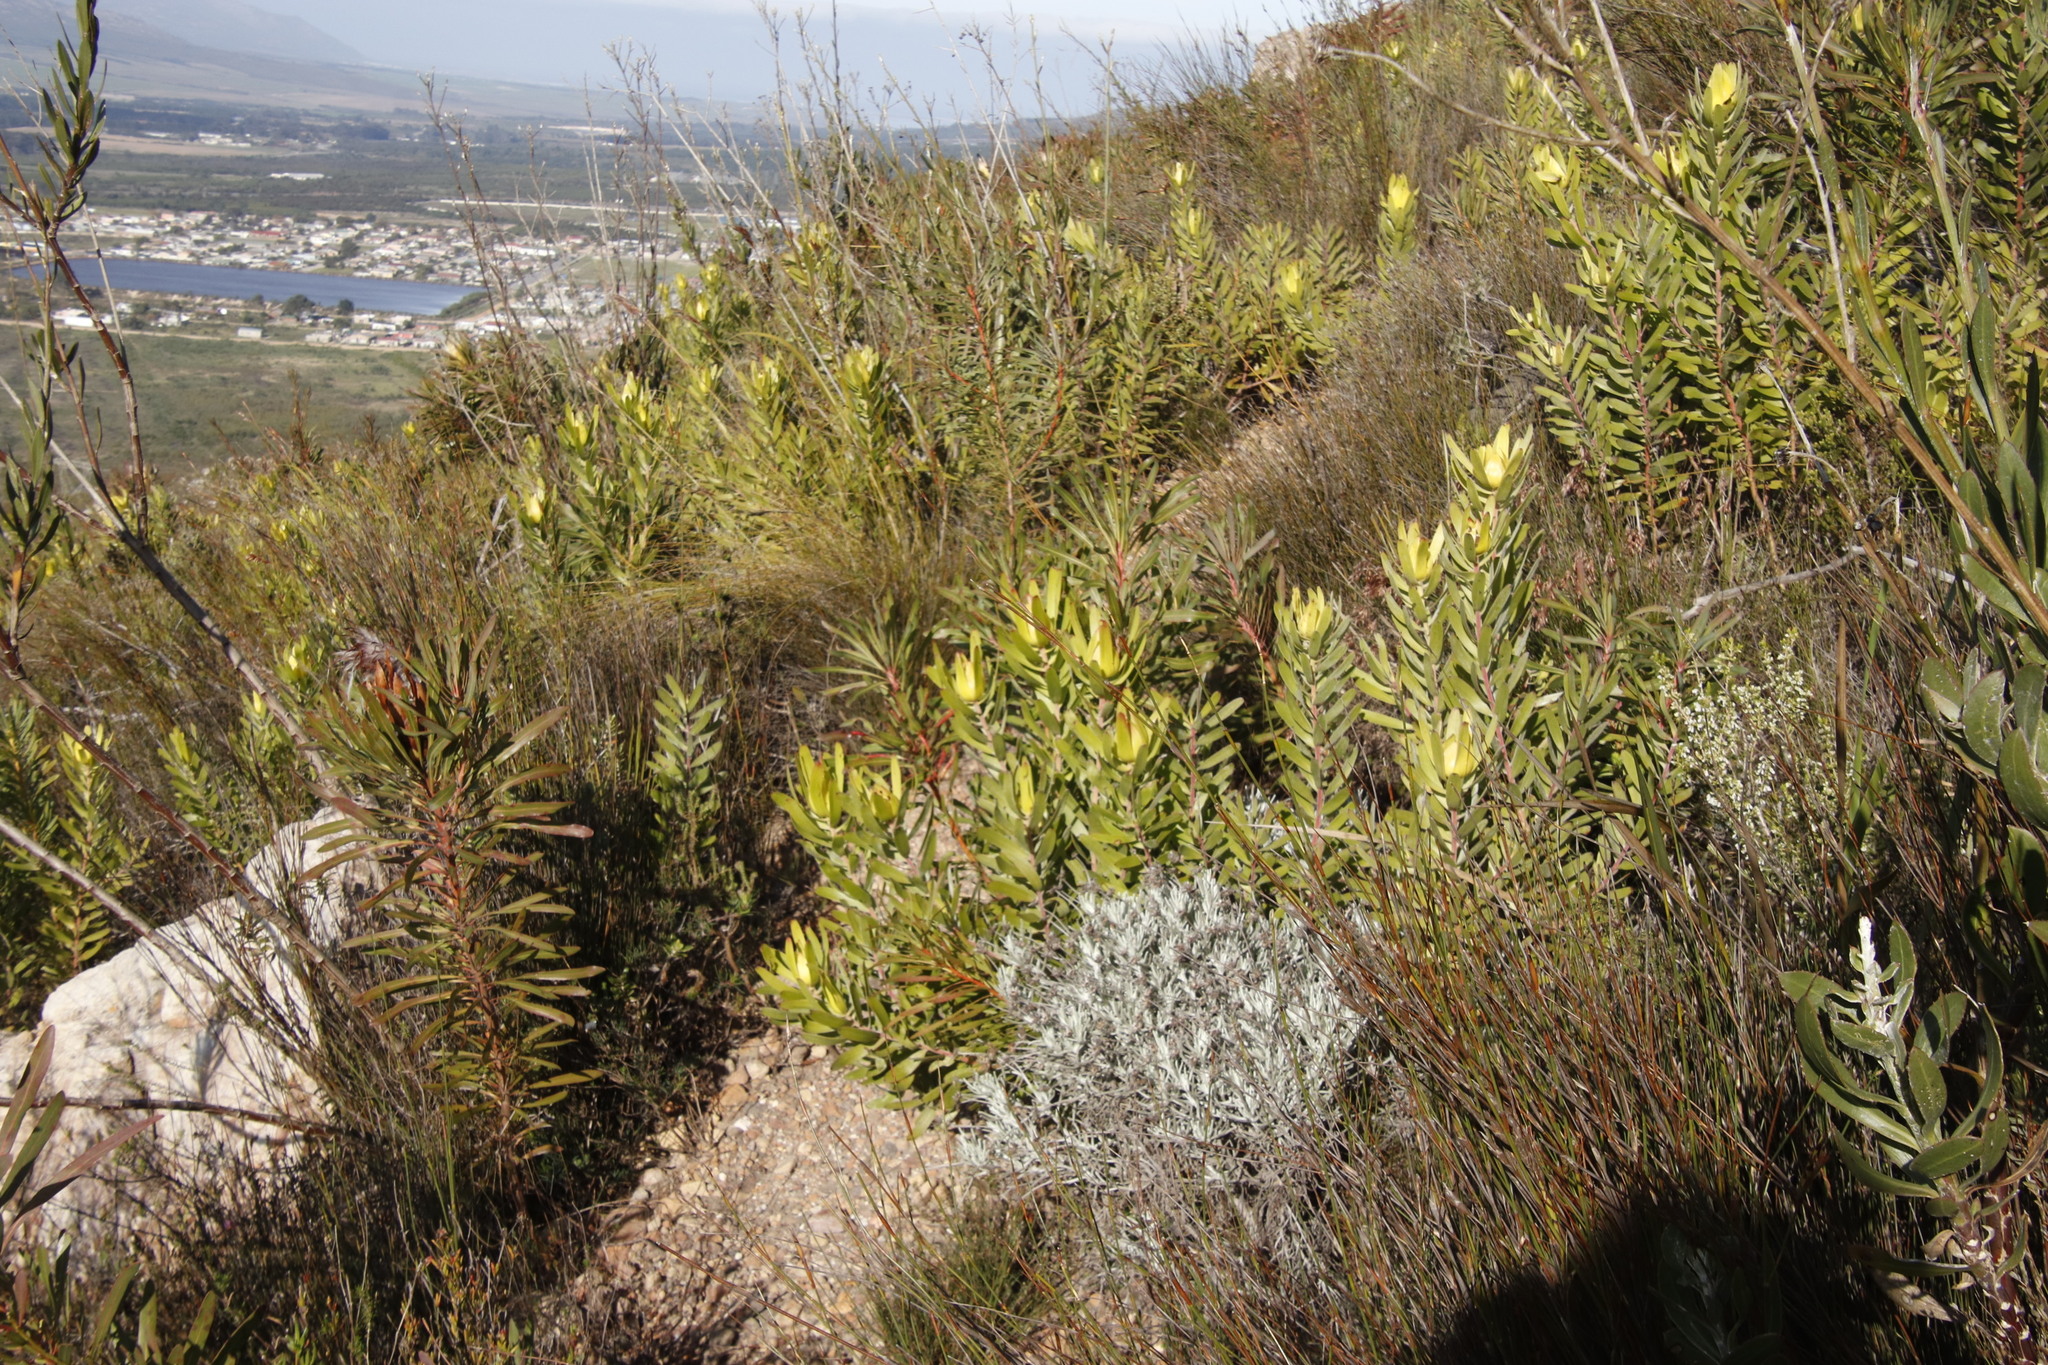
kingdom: Plantae
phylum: Tracheophyta
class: Magnoliopsida
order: Proteales
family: Proteaceae
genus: Leucadendron
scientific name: Leucadendron laureolum
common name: Golden sunshinebush
